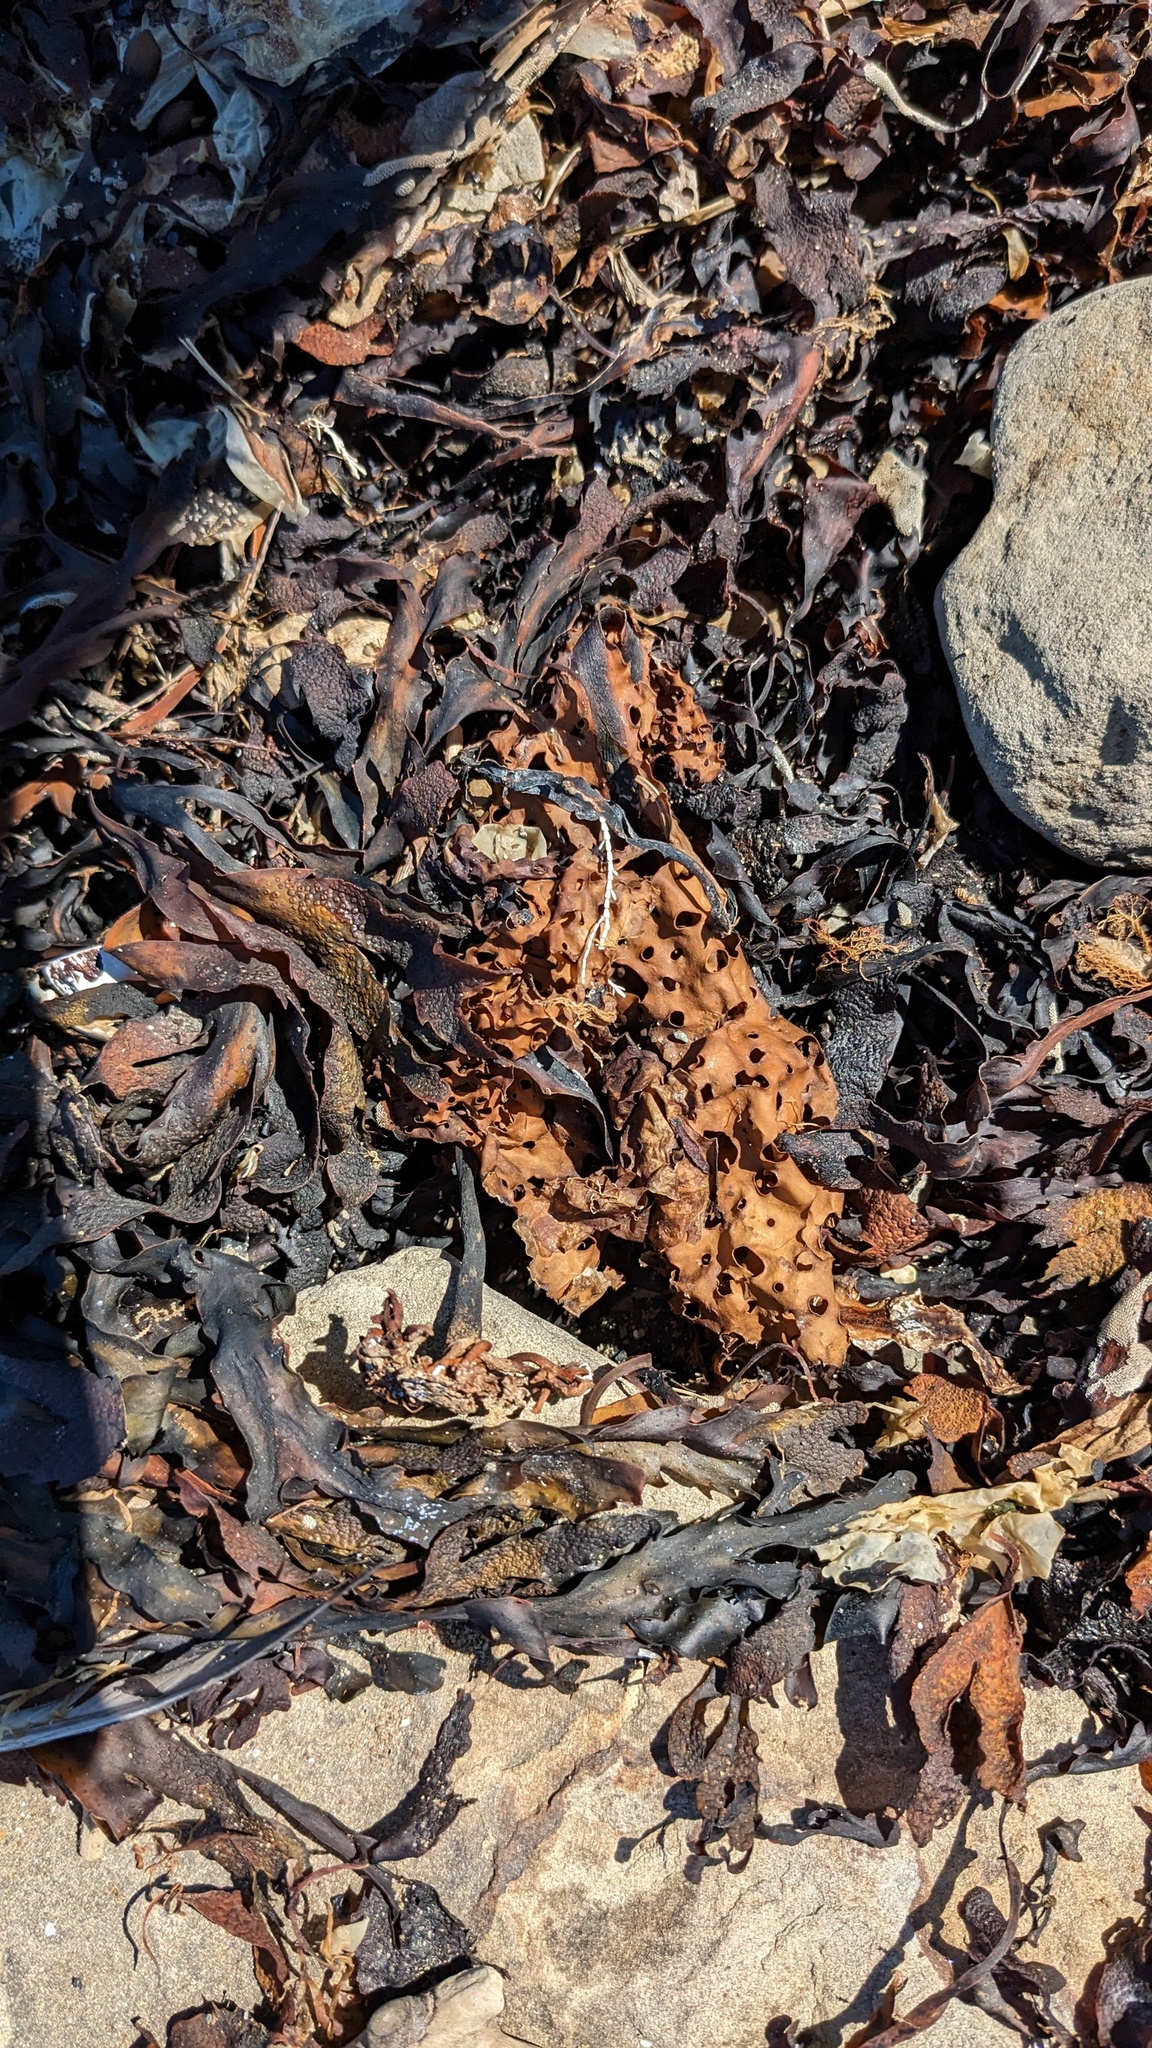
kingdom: Chromista
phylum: Ochrophyta
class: Phaeophyceae
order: Laminariales
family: Costariaceae
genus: Agarum
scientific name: Agarum clathratum
